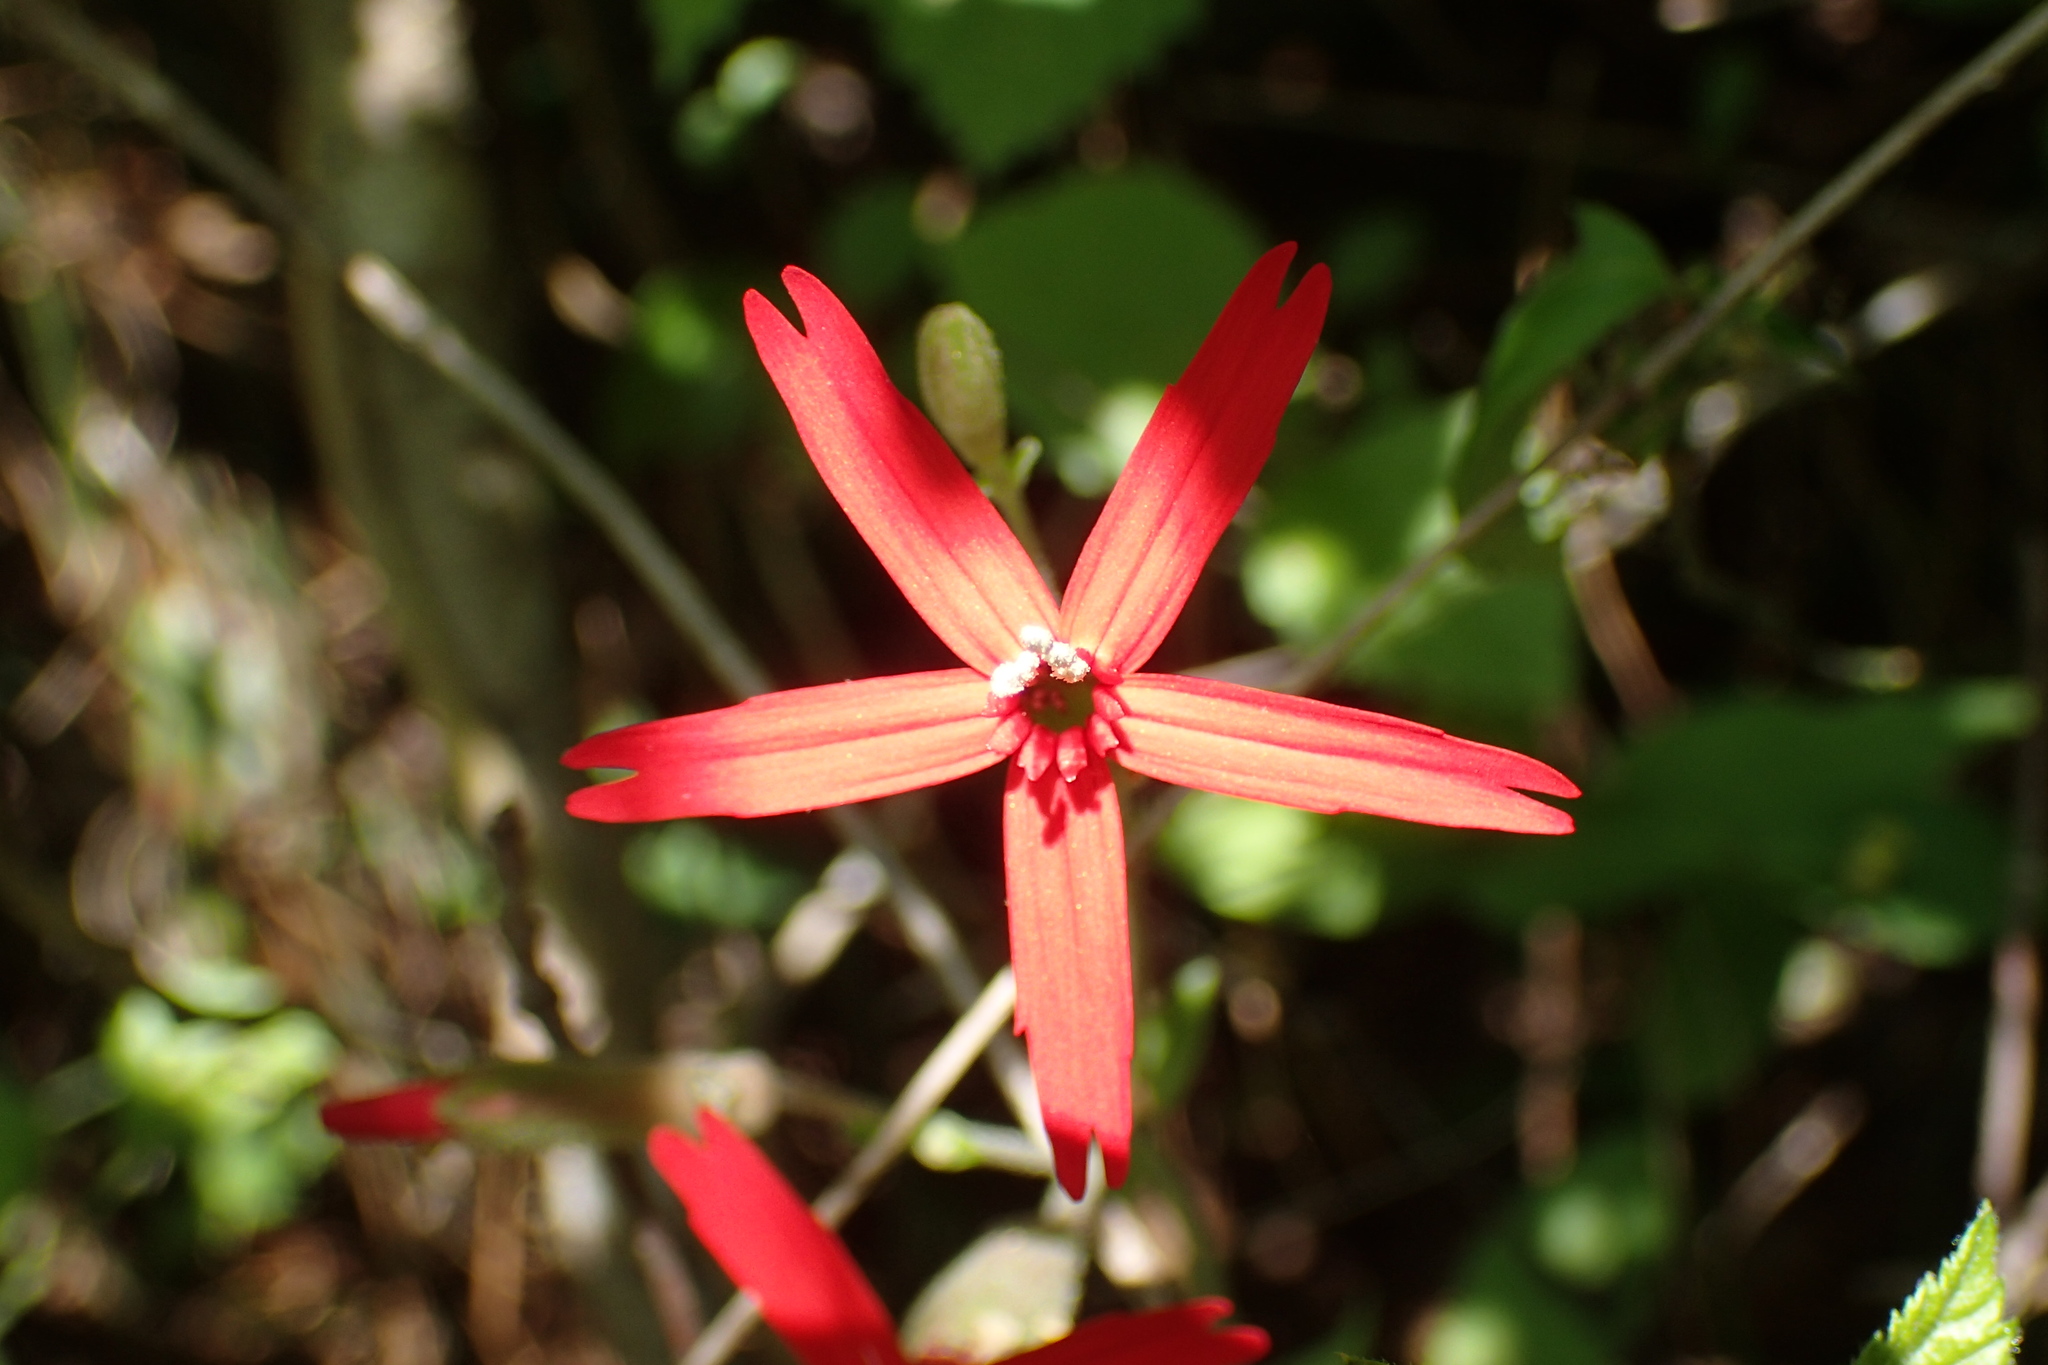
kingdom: Plantae
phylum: Tracheophyta
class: Magnoliopsida
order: Caryophyllales
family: Caryophyllaceae
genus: Silene
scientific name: Silene virginica
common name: Fire-pink
